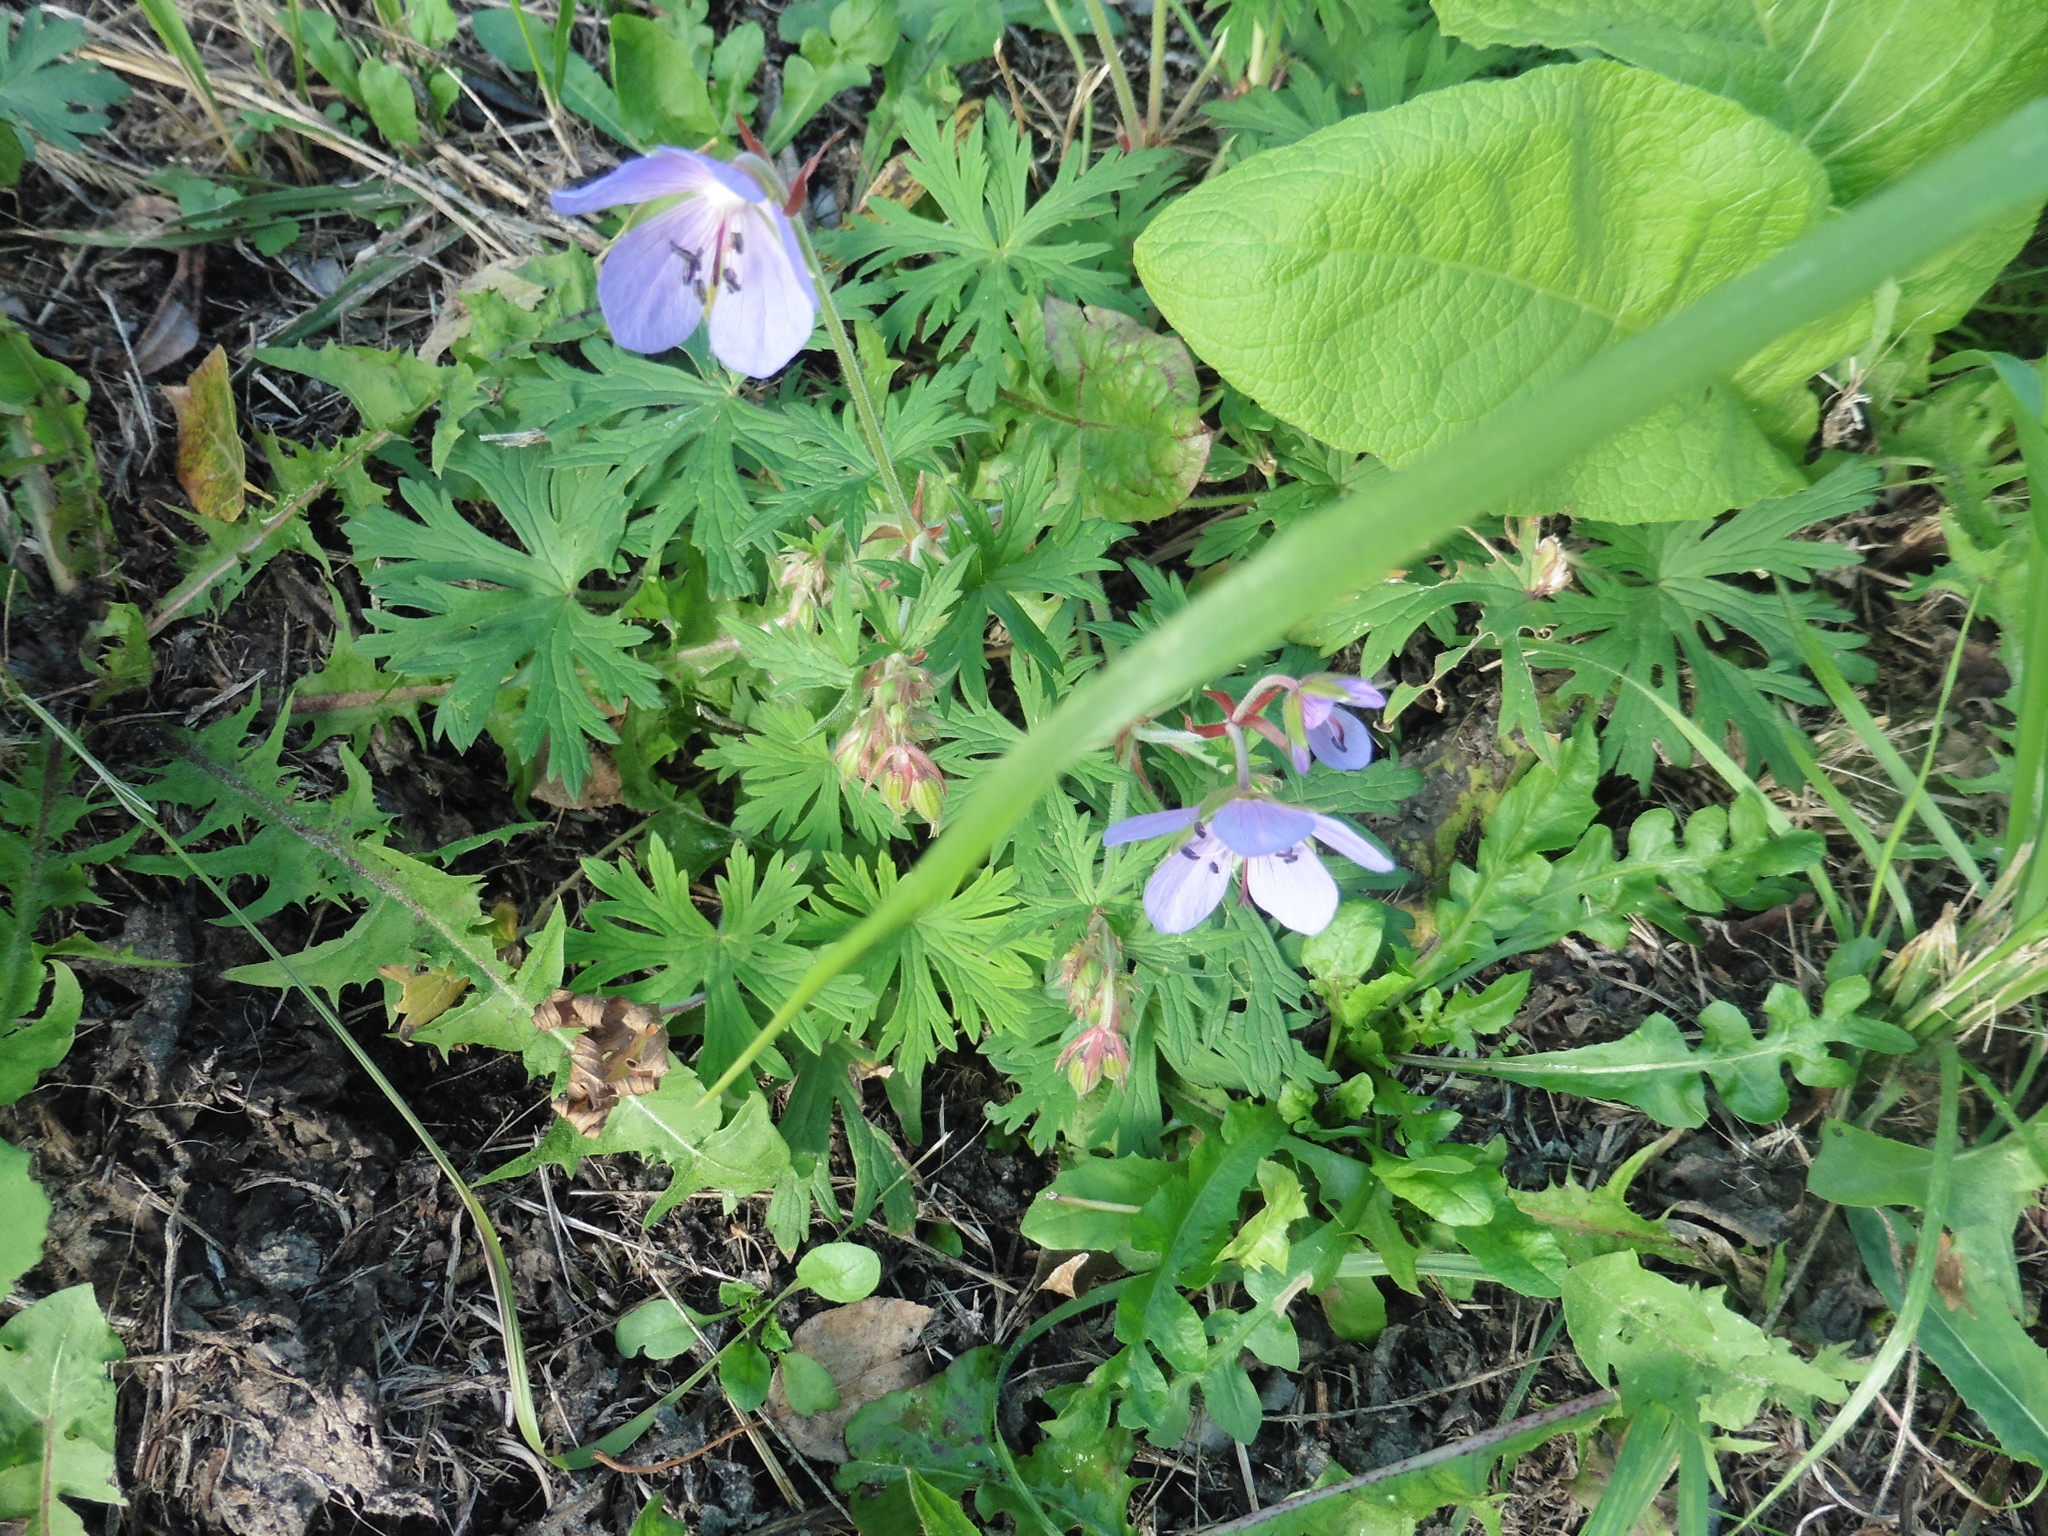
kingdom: Plantae
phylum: Tracheophyta
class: Magnoliopsida
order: Geraniales
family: Geraniaceae
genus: Geranium
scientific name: Geranium pratense
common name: Meadow crane's-bill
